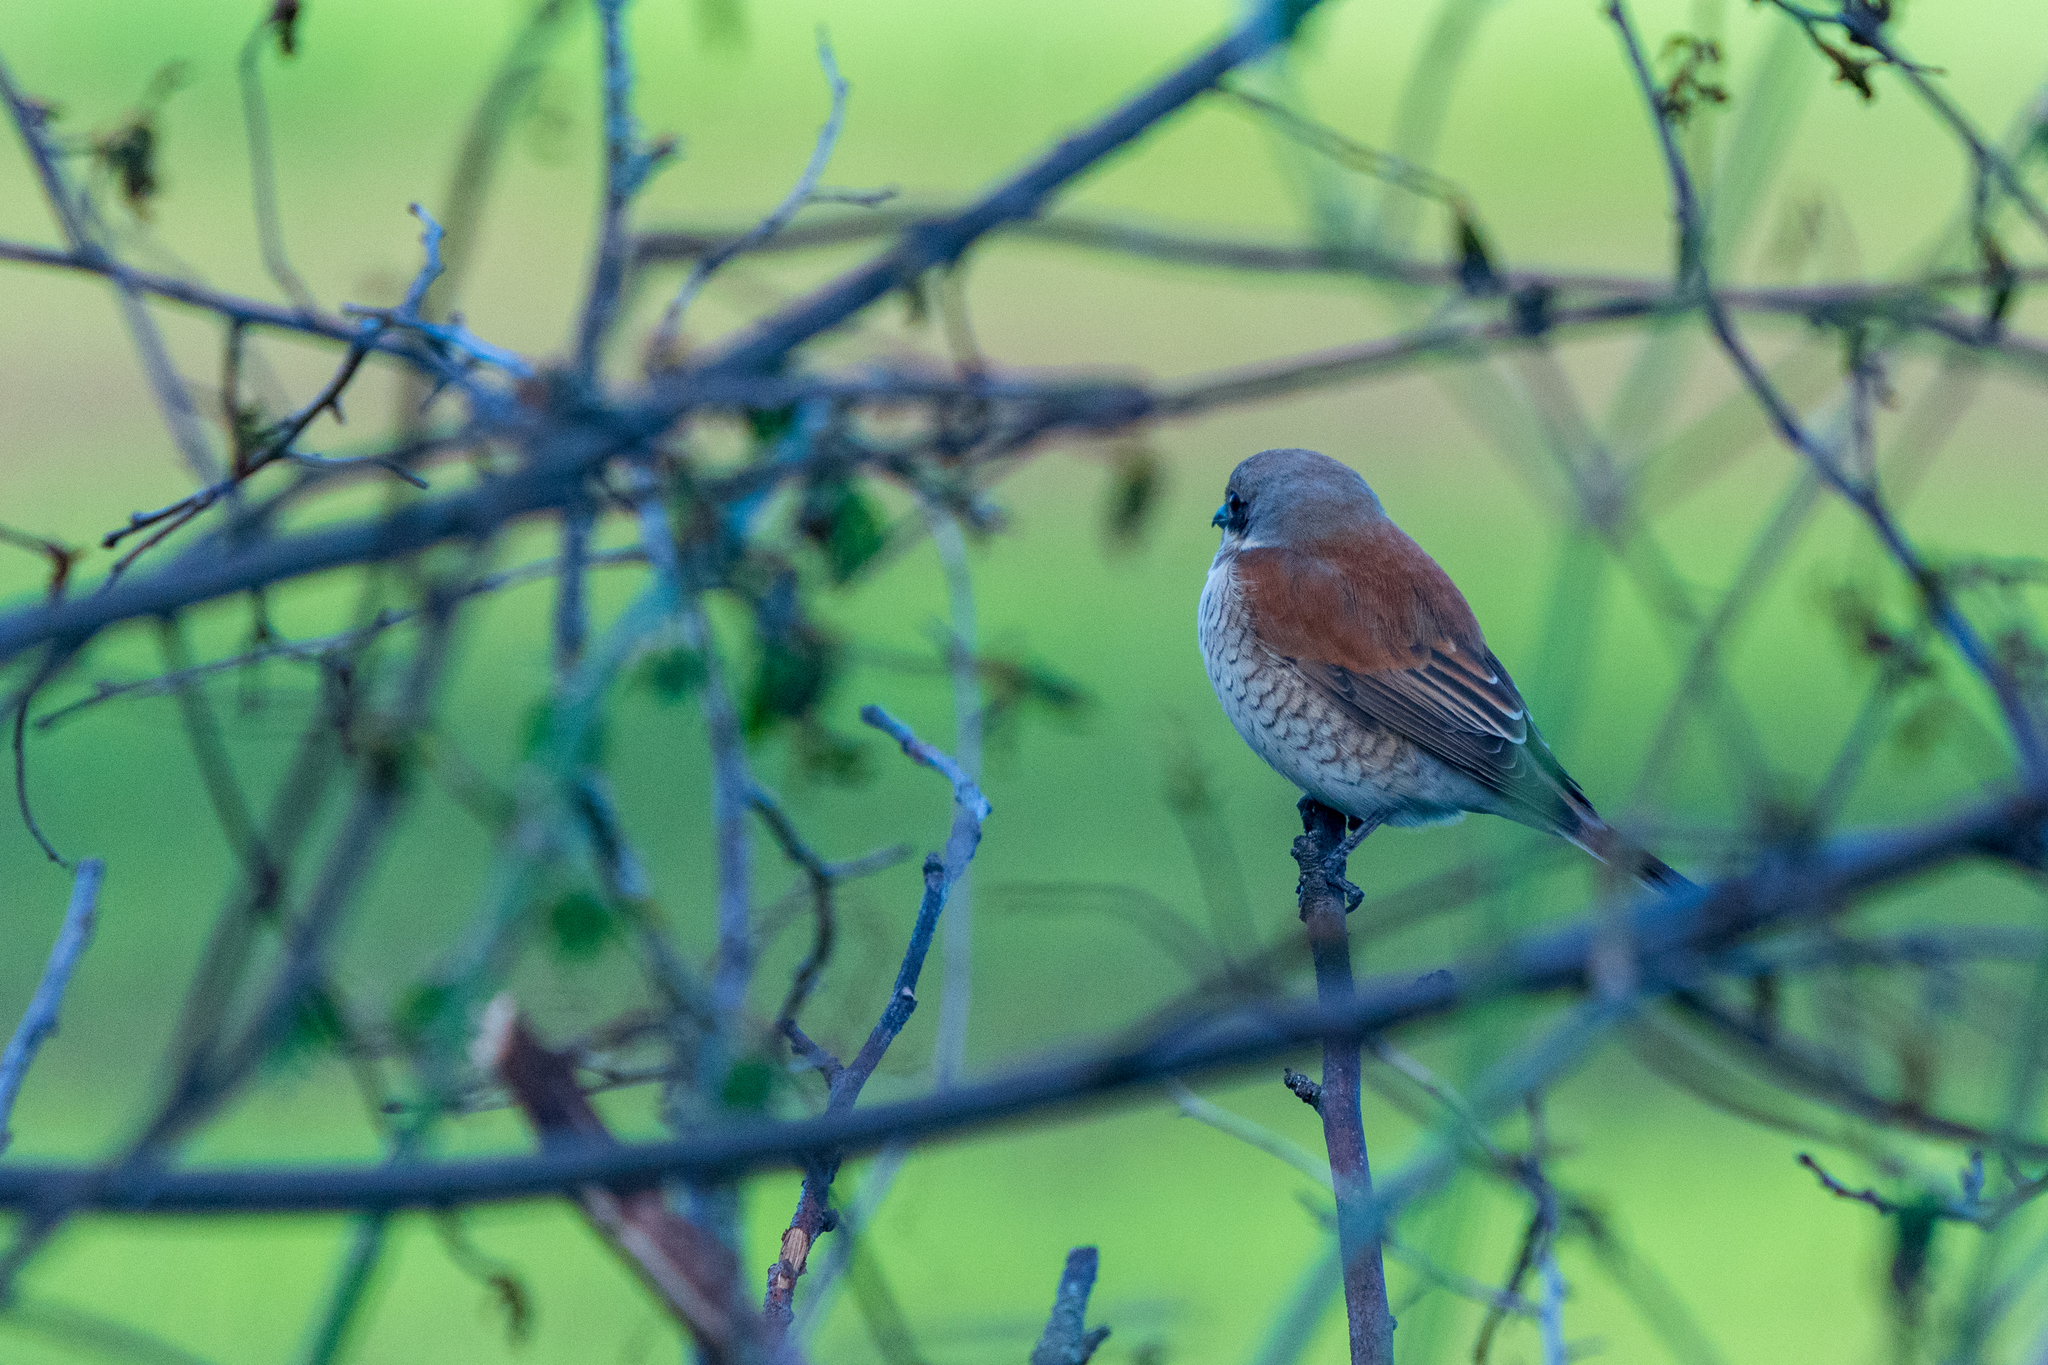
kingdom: Animalia
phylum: Chordata
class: Aves
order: Passeriformes
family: Laniidae
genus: Lanius
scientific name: Lanius collurio
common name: Red-backed shrike
